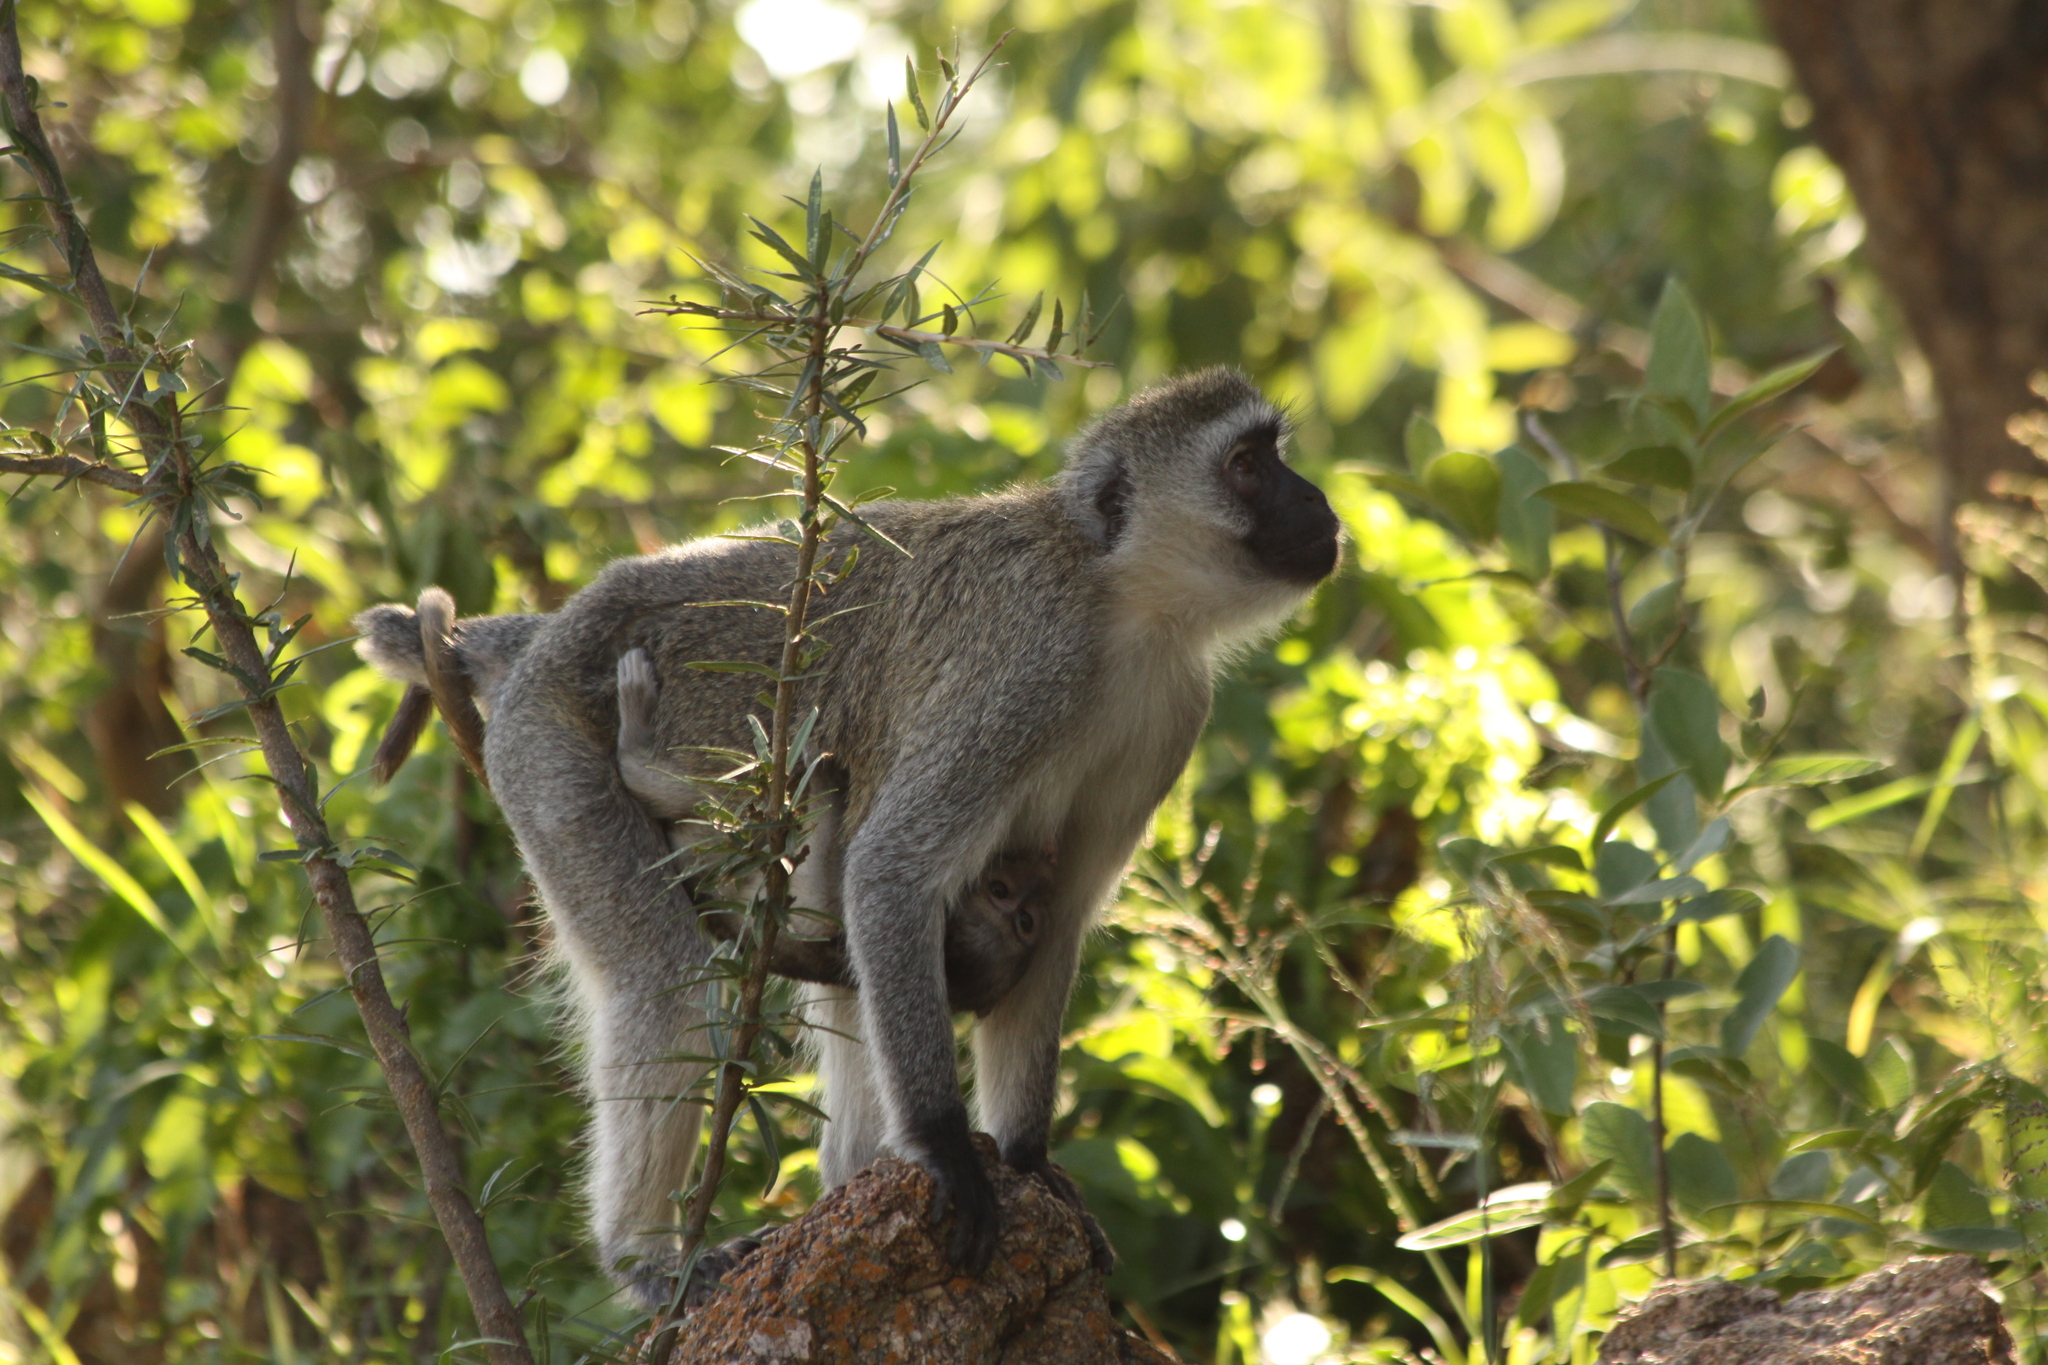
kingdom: Animalia
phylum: Chordata
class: Mammalia
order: Primates
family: Cercopithecidae
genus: Chlorocebus
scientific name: Chlorocebus pygerythrus
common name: Vervet monkey
